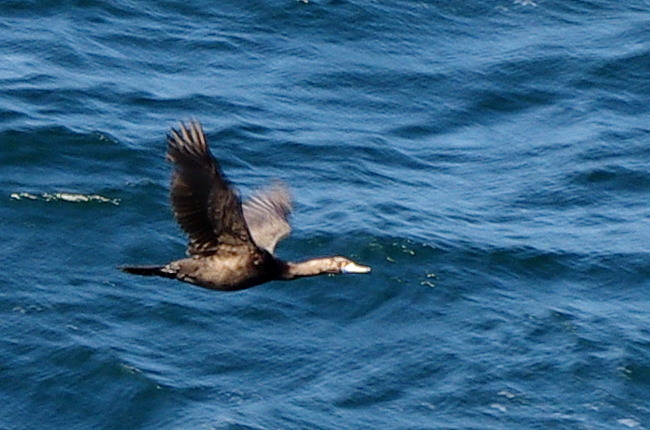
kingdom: Animalia
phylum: Chordata
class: Aves
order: Suliformes
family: Phalacrocoracidae
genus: Phalacrocorax
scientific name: Phalacrocorax urile
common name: Red-faced cormorant
